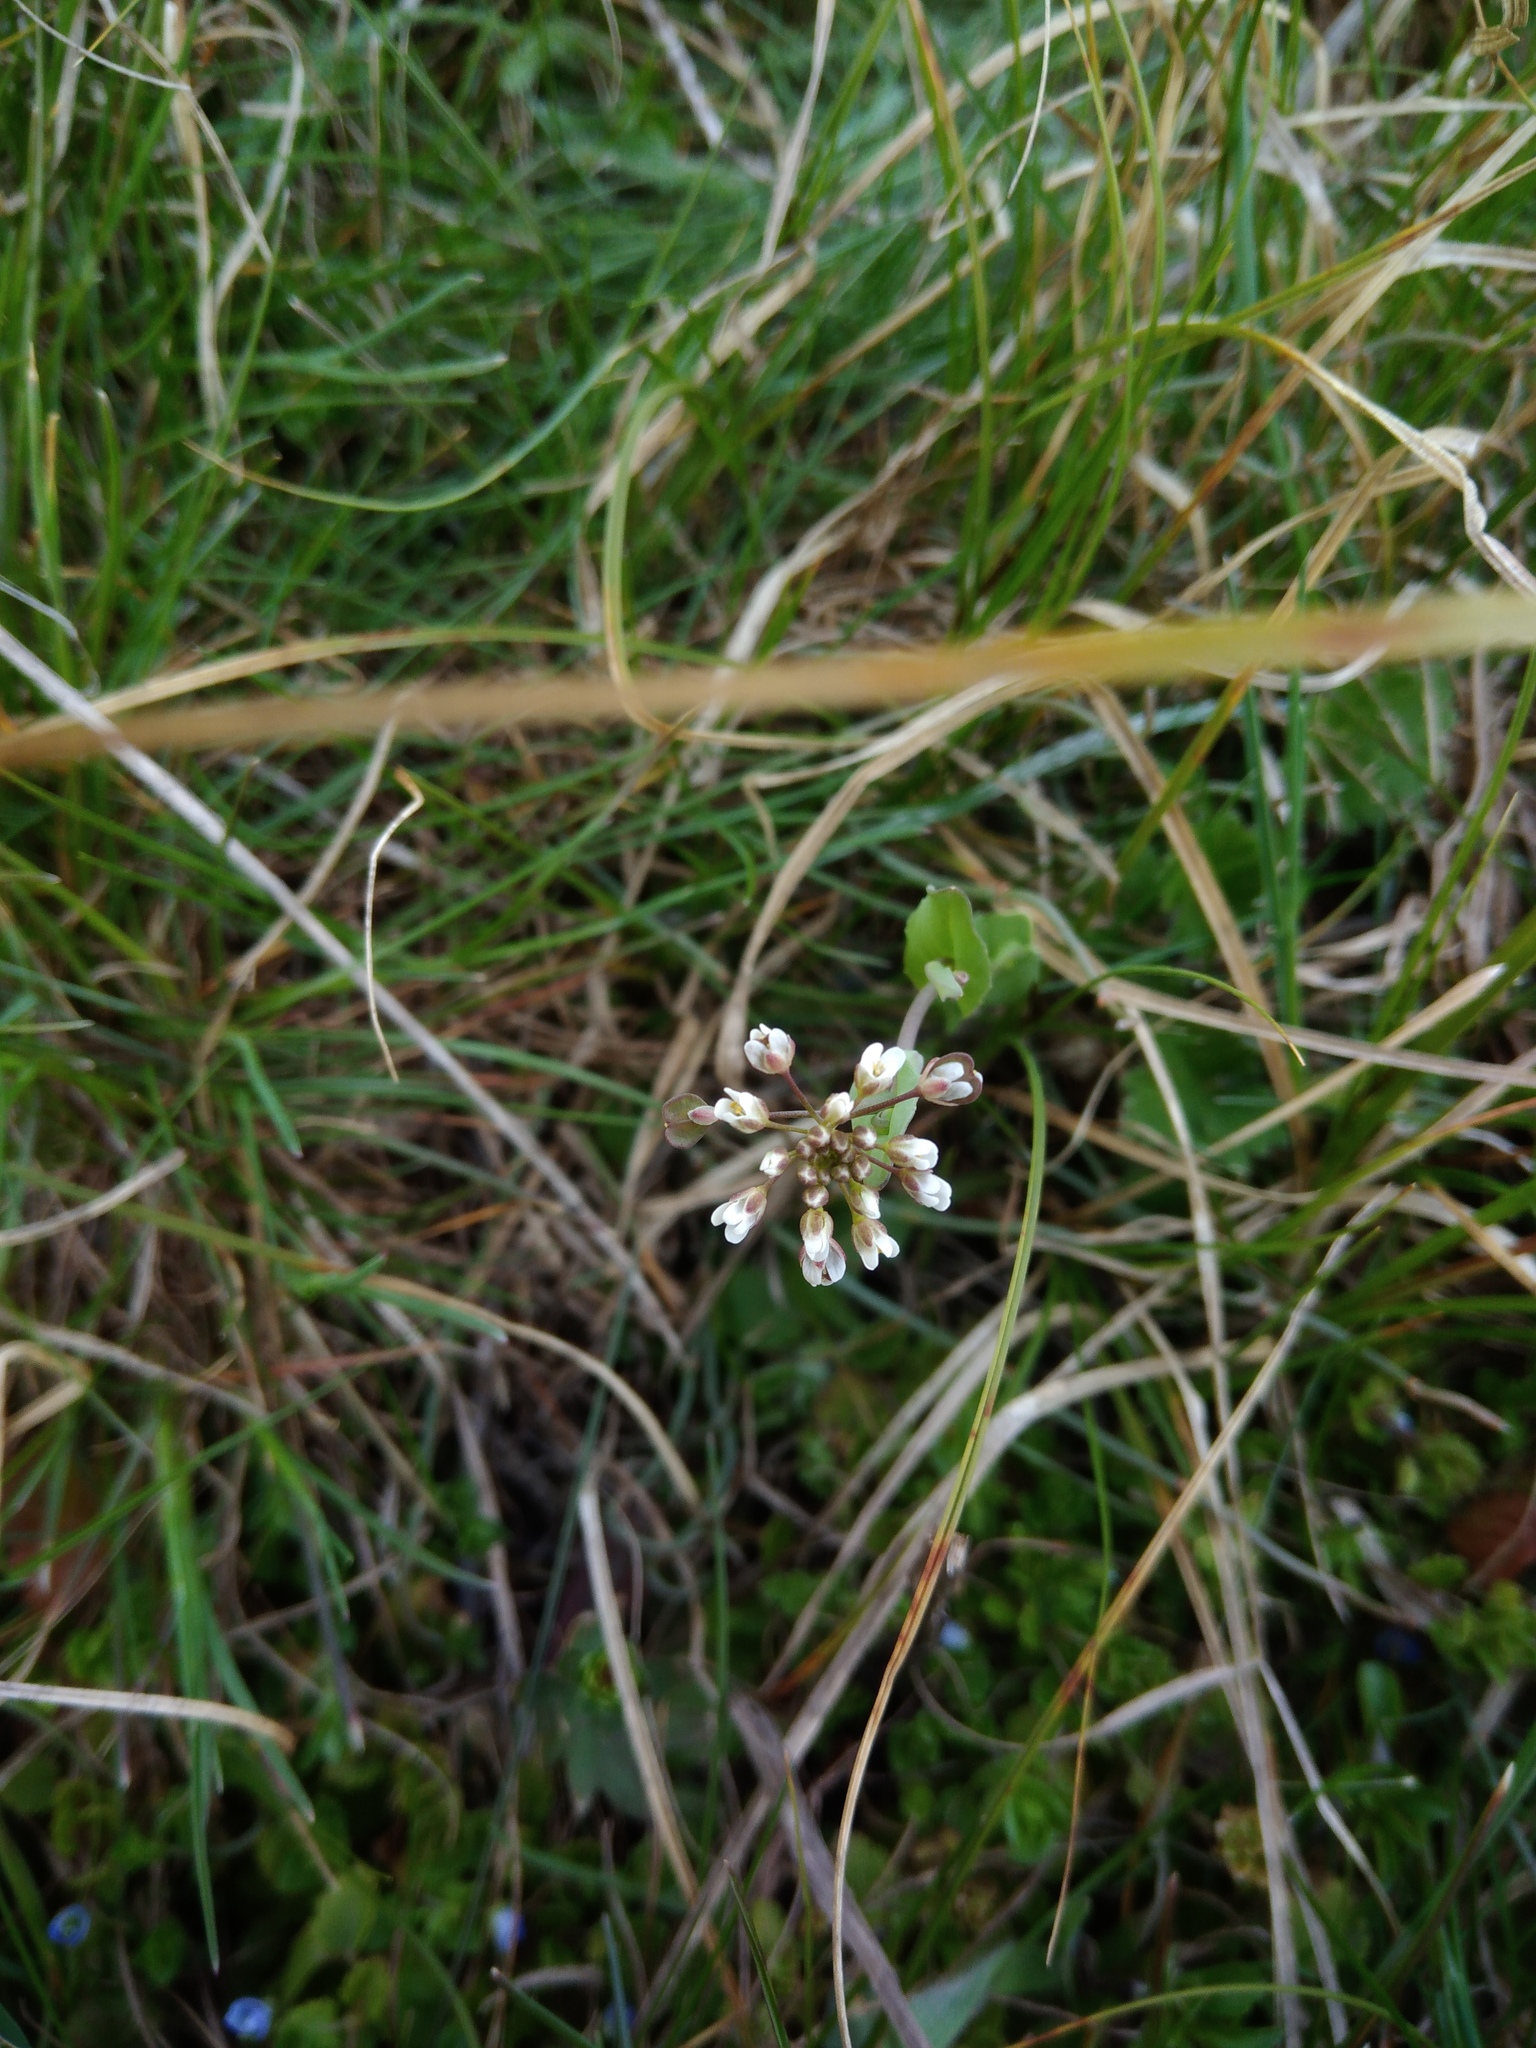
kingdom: Plantae
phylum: Tracheophyta
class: Magnoliopsida
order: Brassicales
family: Brassicaceae
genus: Noccaea
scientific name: Noccaea perfoliata
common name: Perfoliate pennycress
